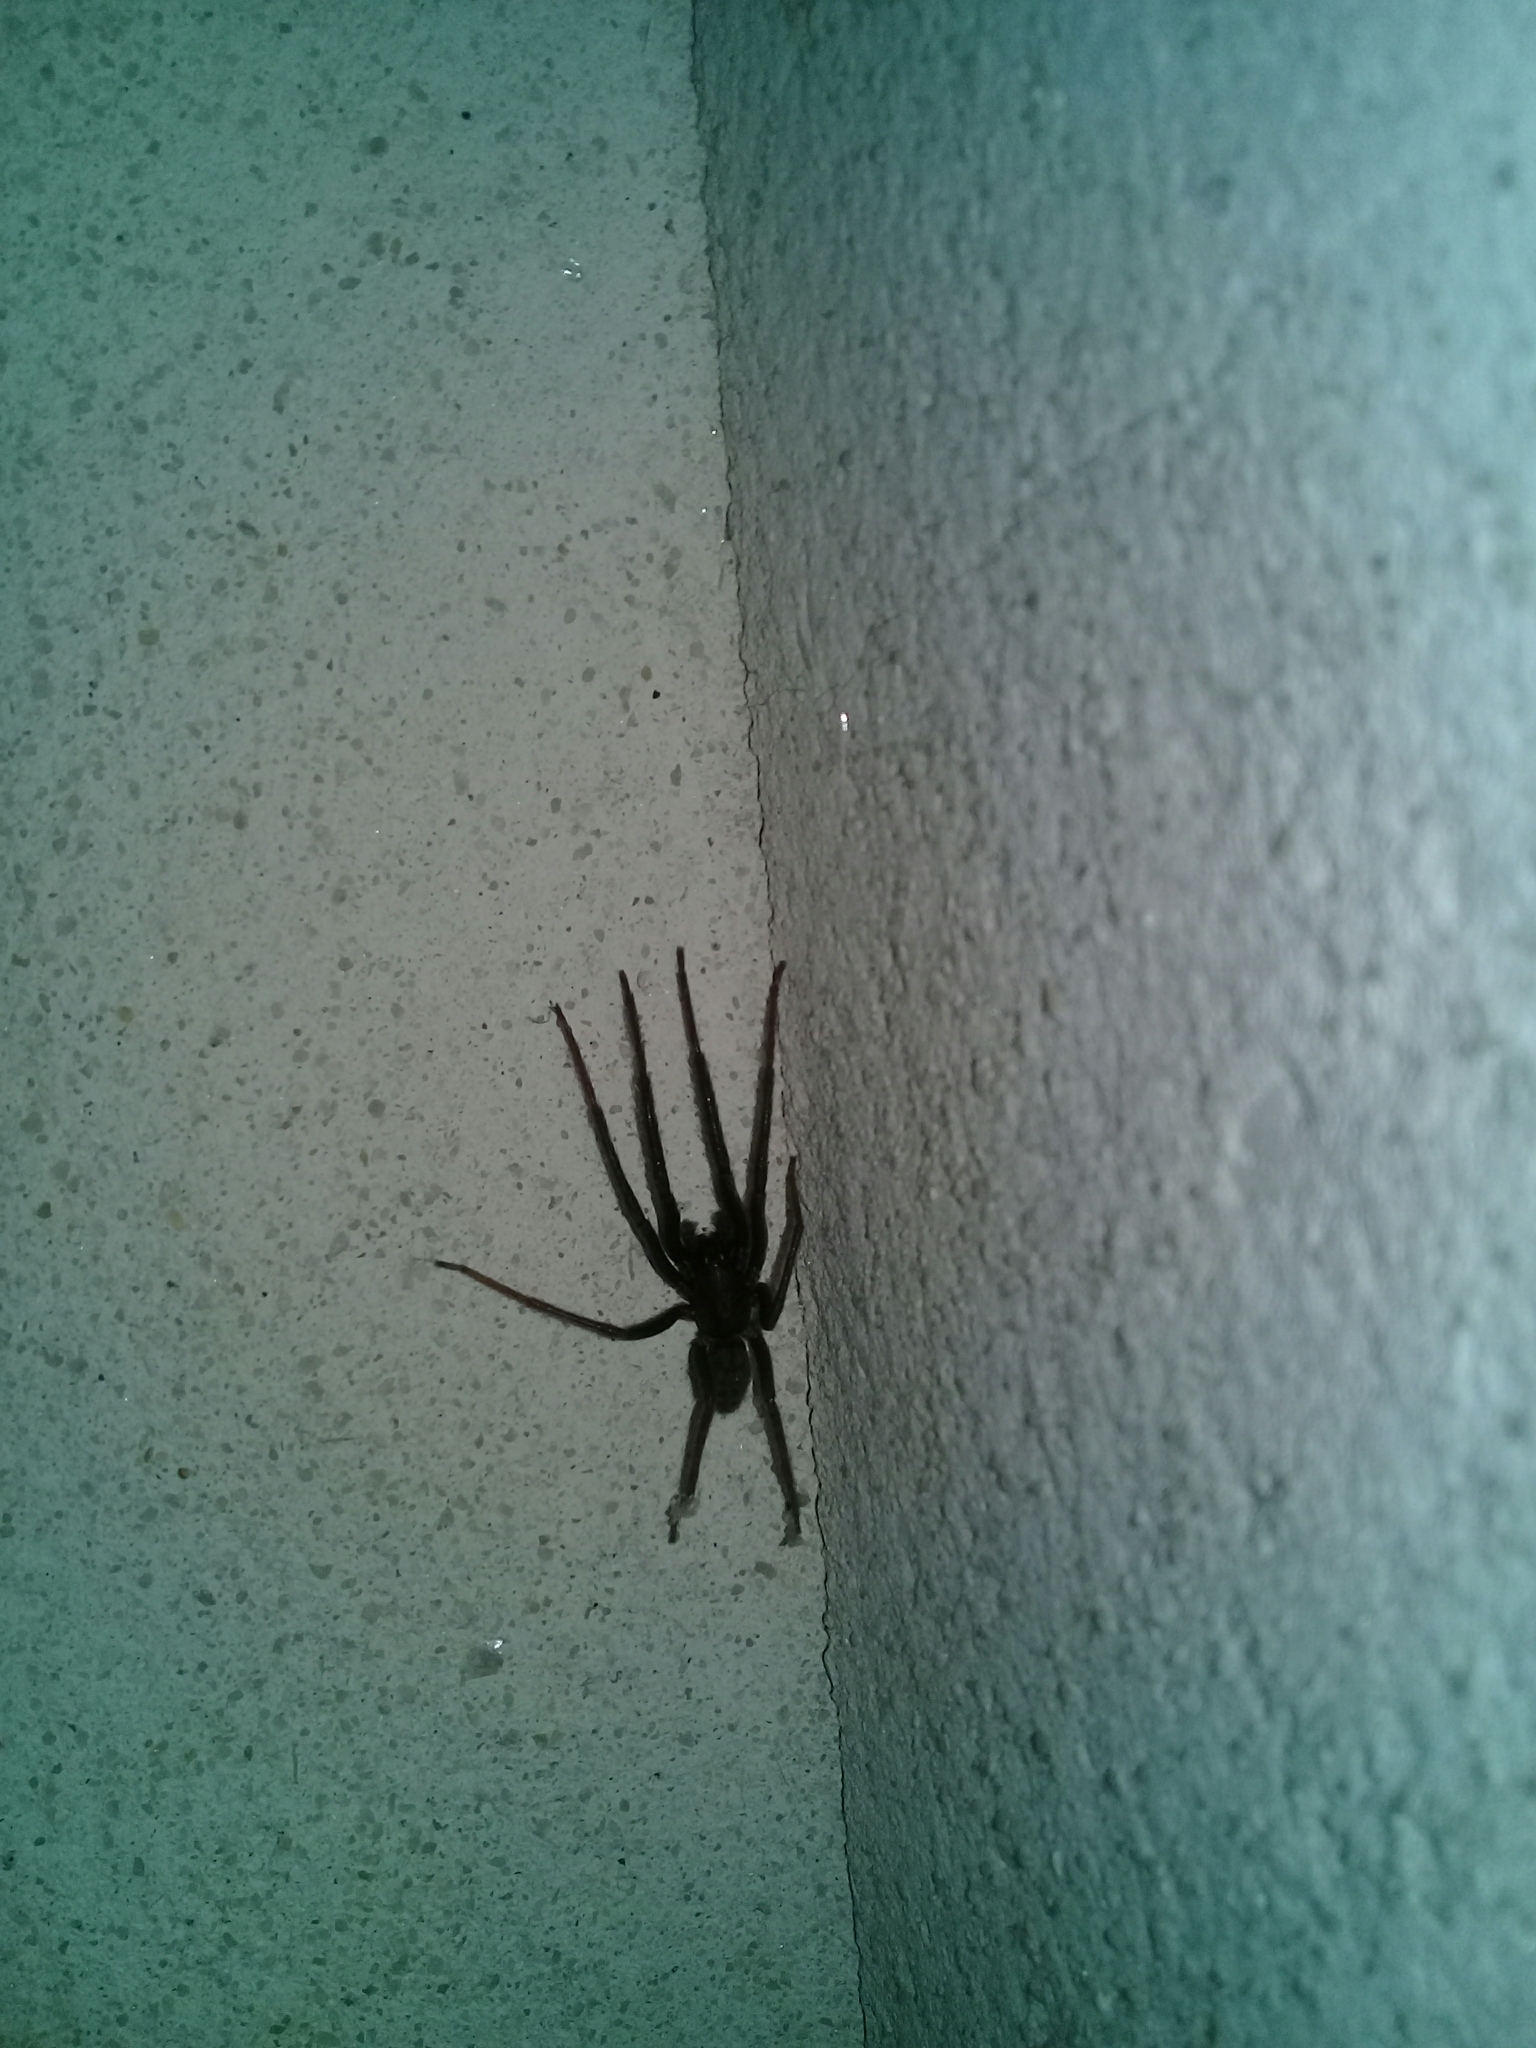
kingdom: Animalia
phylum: Arthropoda
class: Arachnida
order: Araneae
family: Segestriidae
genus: Segestria
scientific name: Segestria florentina
